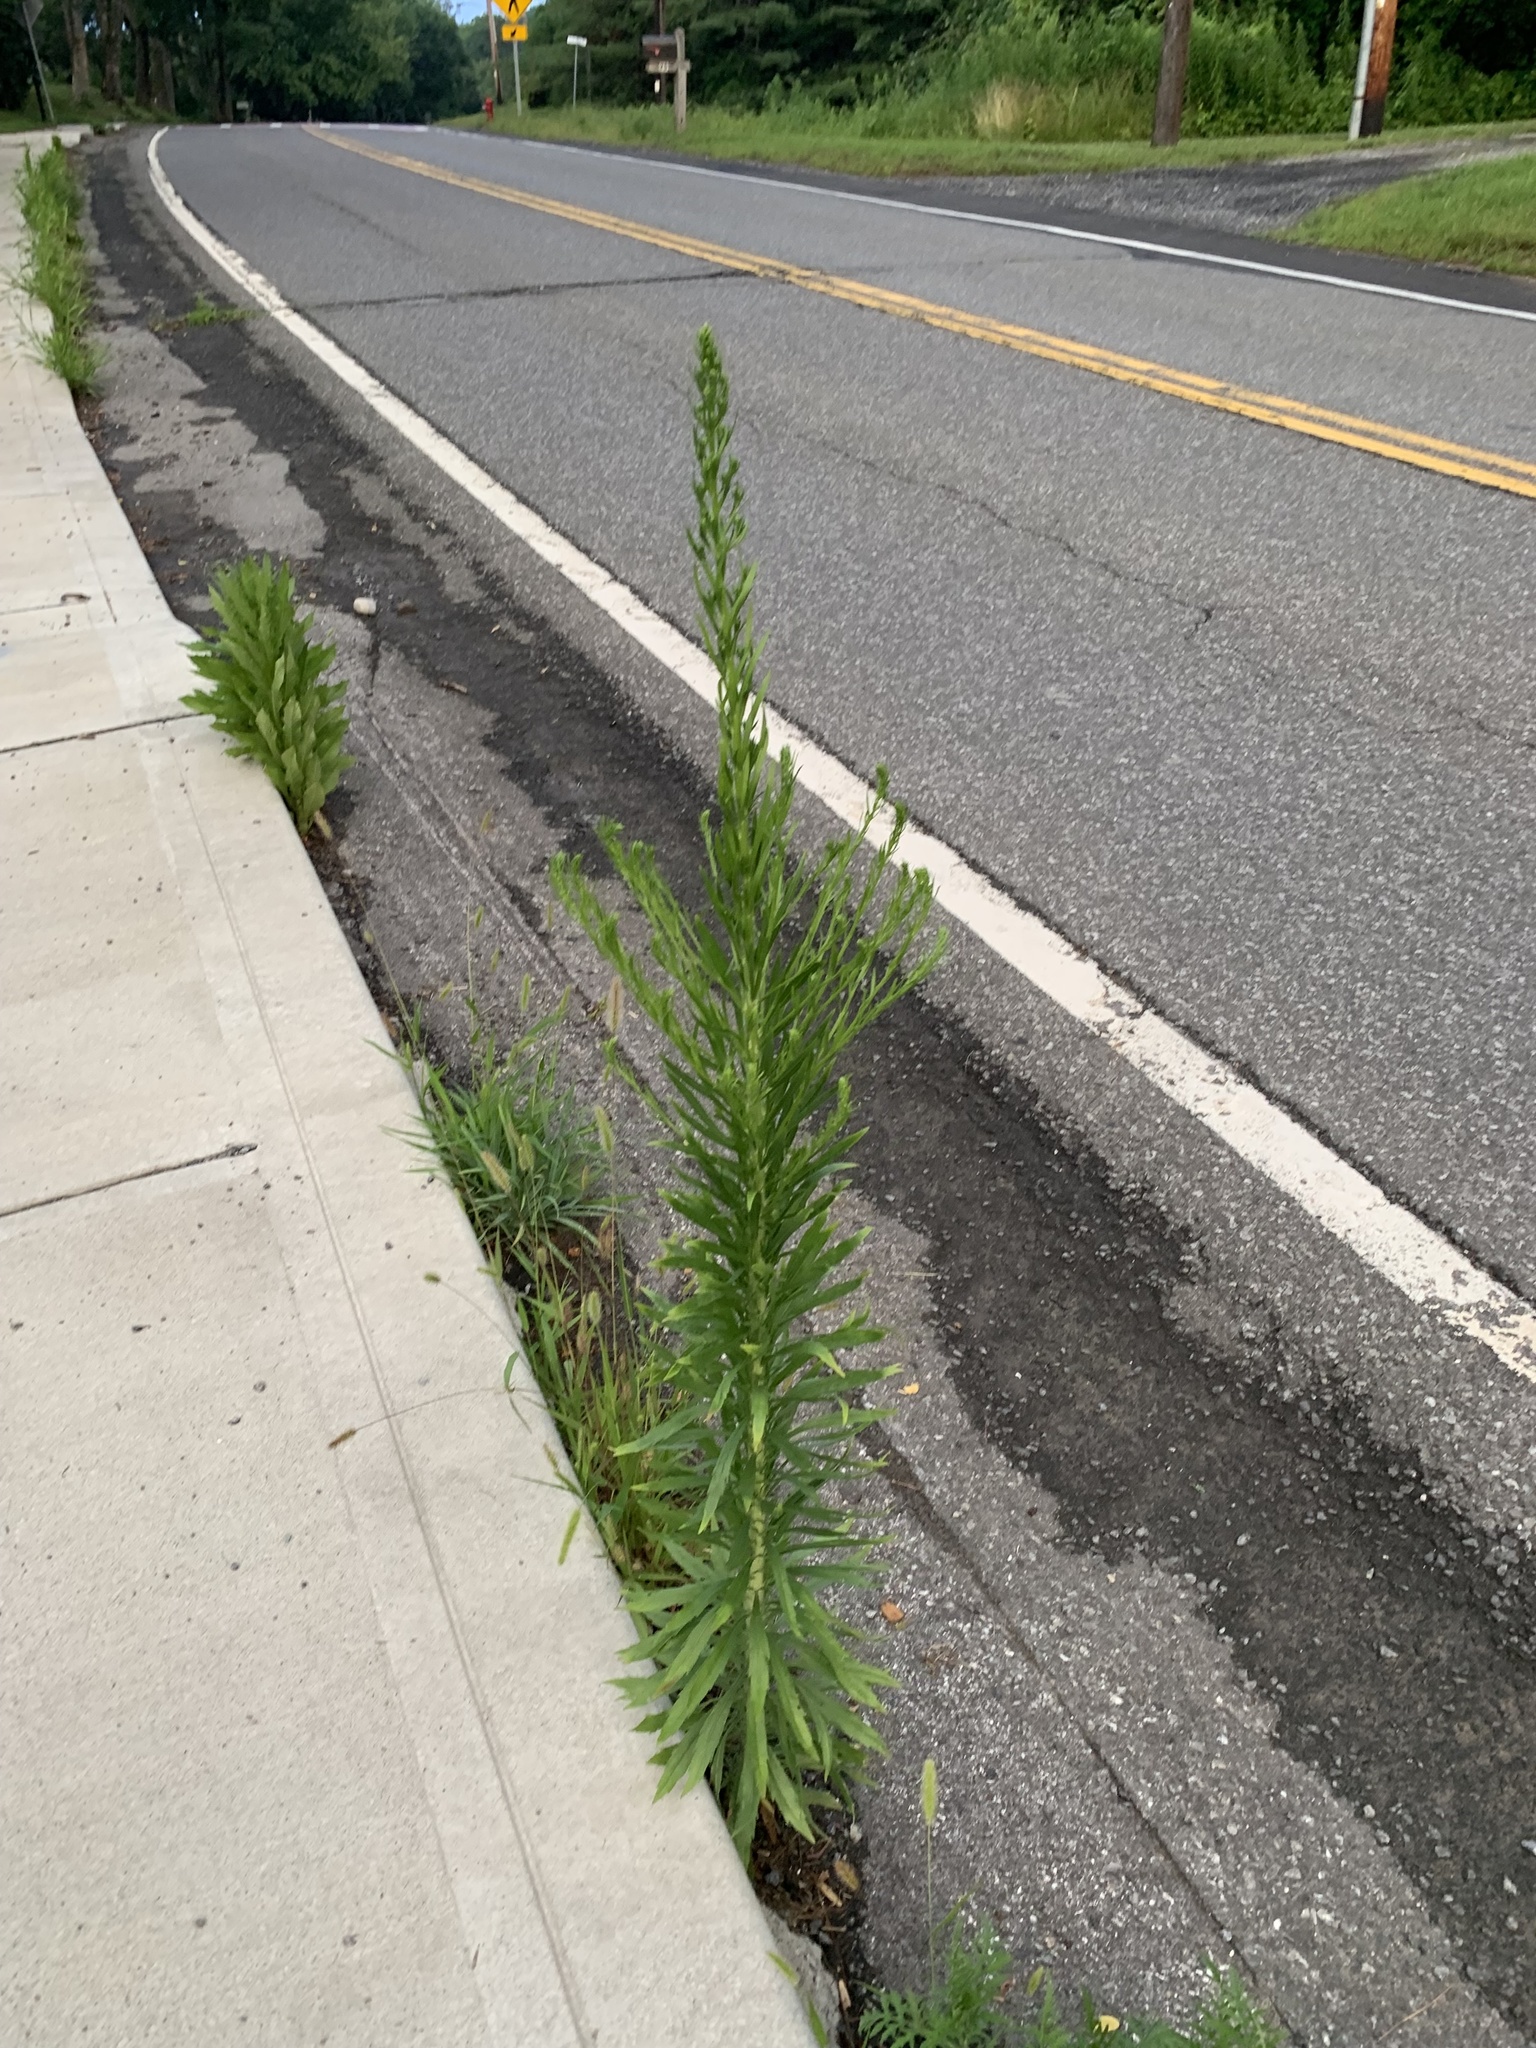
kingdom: Plantae
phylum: Tracheophyta
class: Magnoliopsida
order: Asterales
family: Asteraceae
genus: Erigeron
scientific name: Erigeron canadensis
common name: Canadian fleabane
